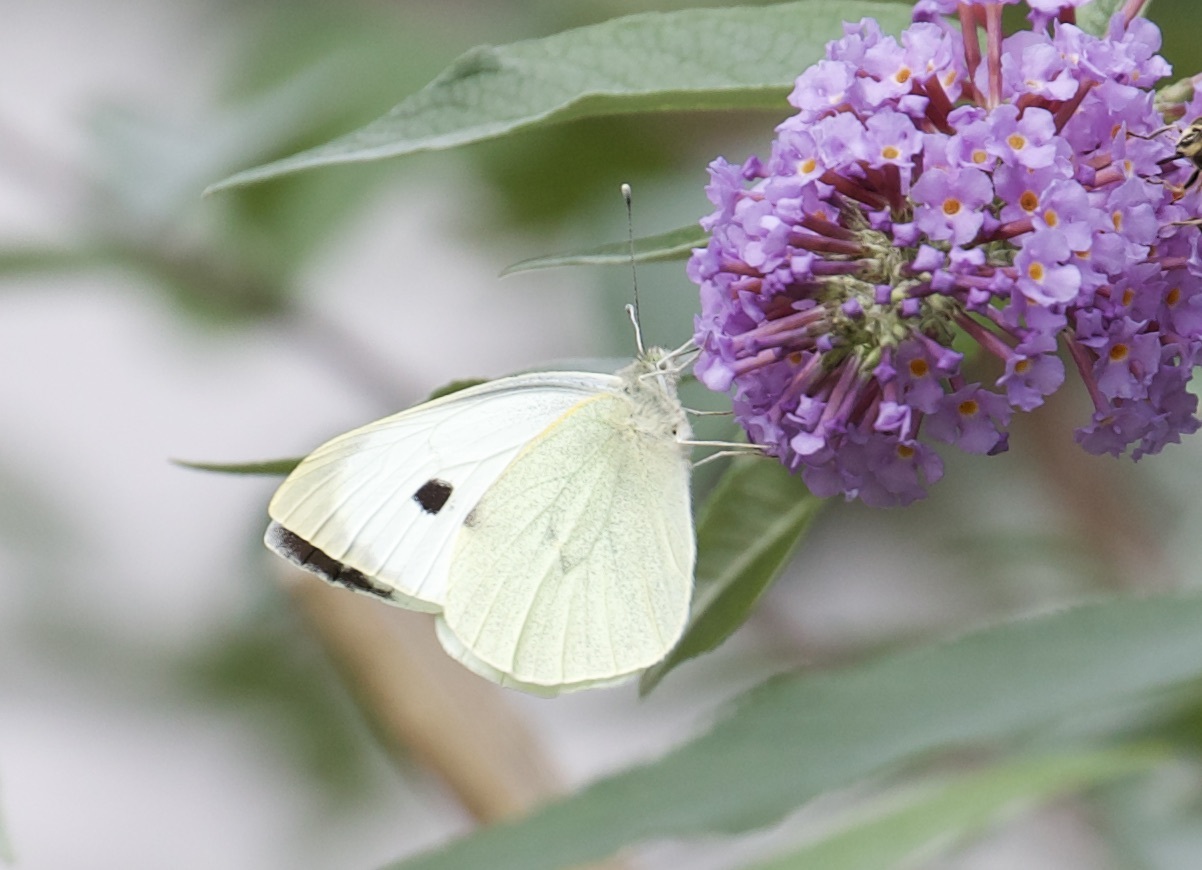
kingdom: Animalia
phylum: Arthropoda
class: Insecta
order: Lepidoptera
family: Pieridae
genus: Pieris
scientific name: Pieris brassicae
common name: Large white
